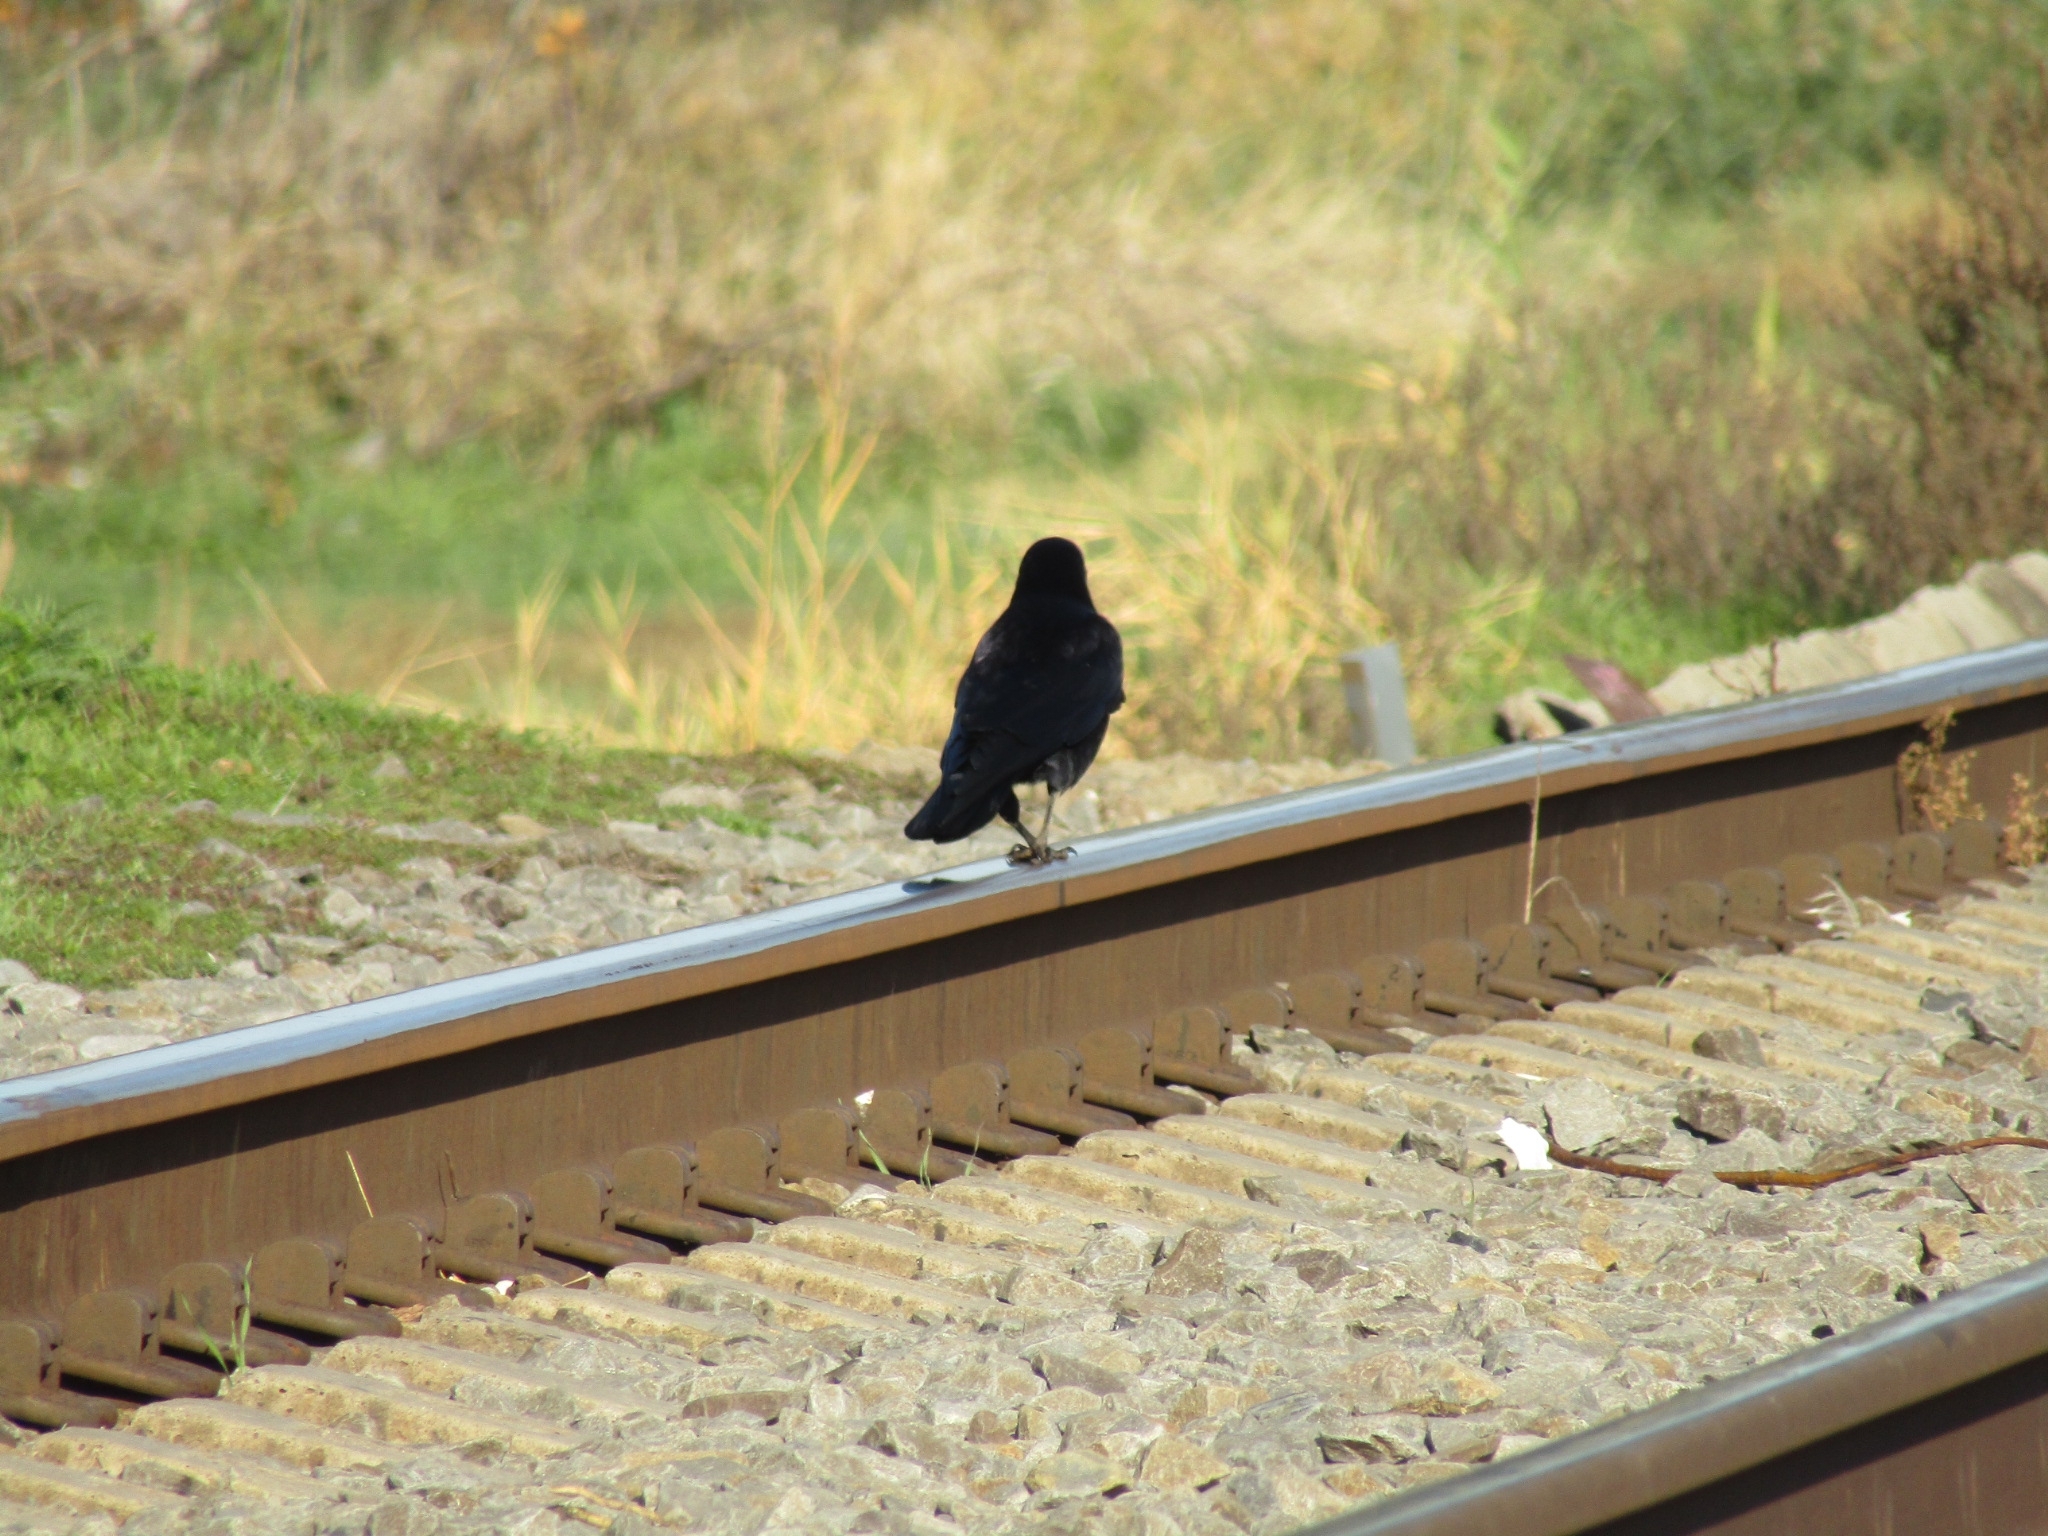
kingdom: Animalia
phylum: Chordata
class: Aves
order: Passeriformes
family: Corvidae
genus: Corvus
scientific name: Corvus frugilegus
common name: Rook
